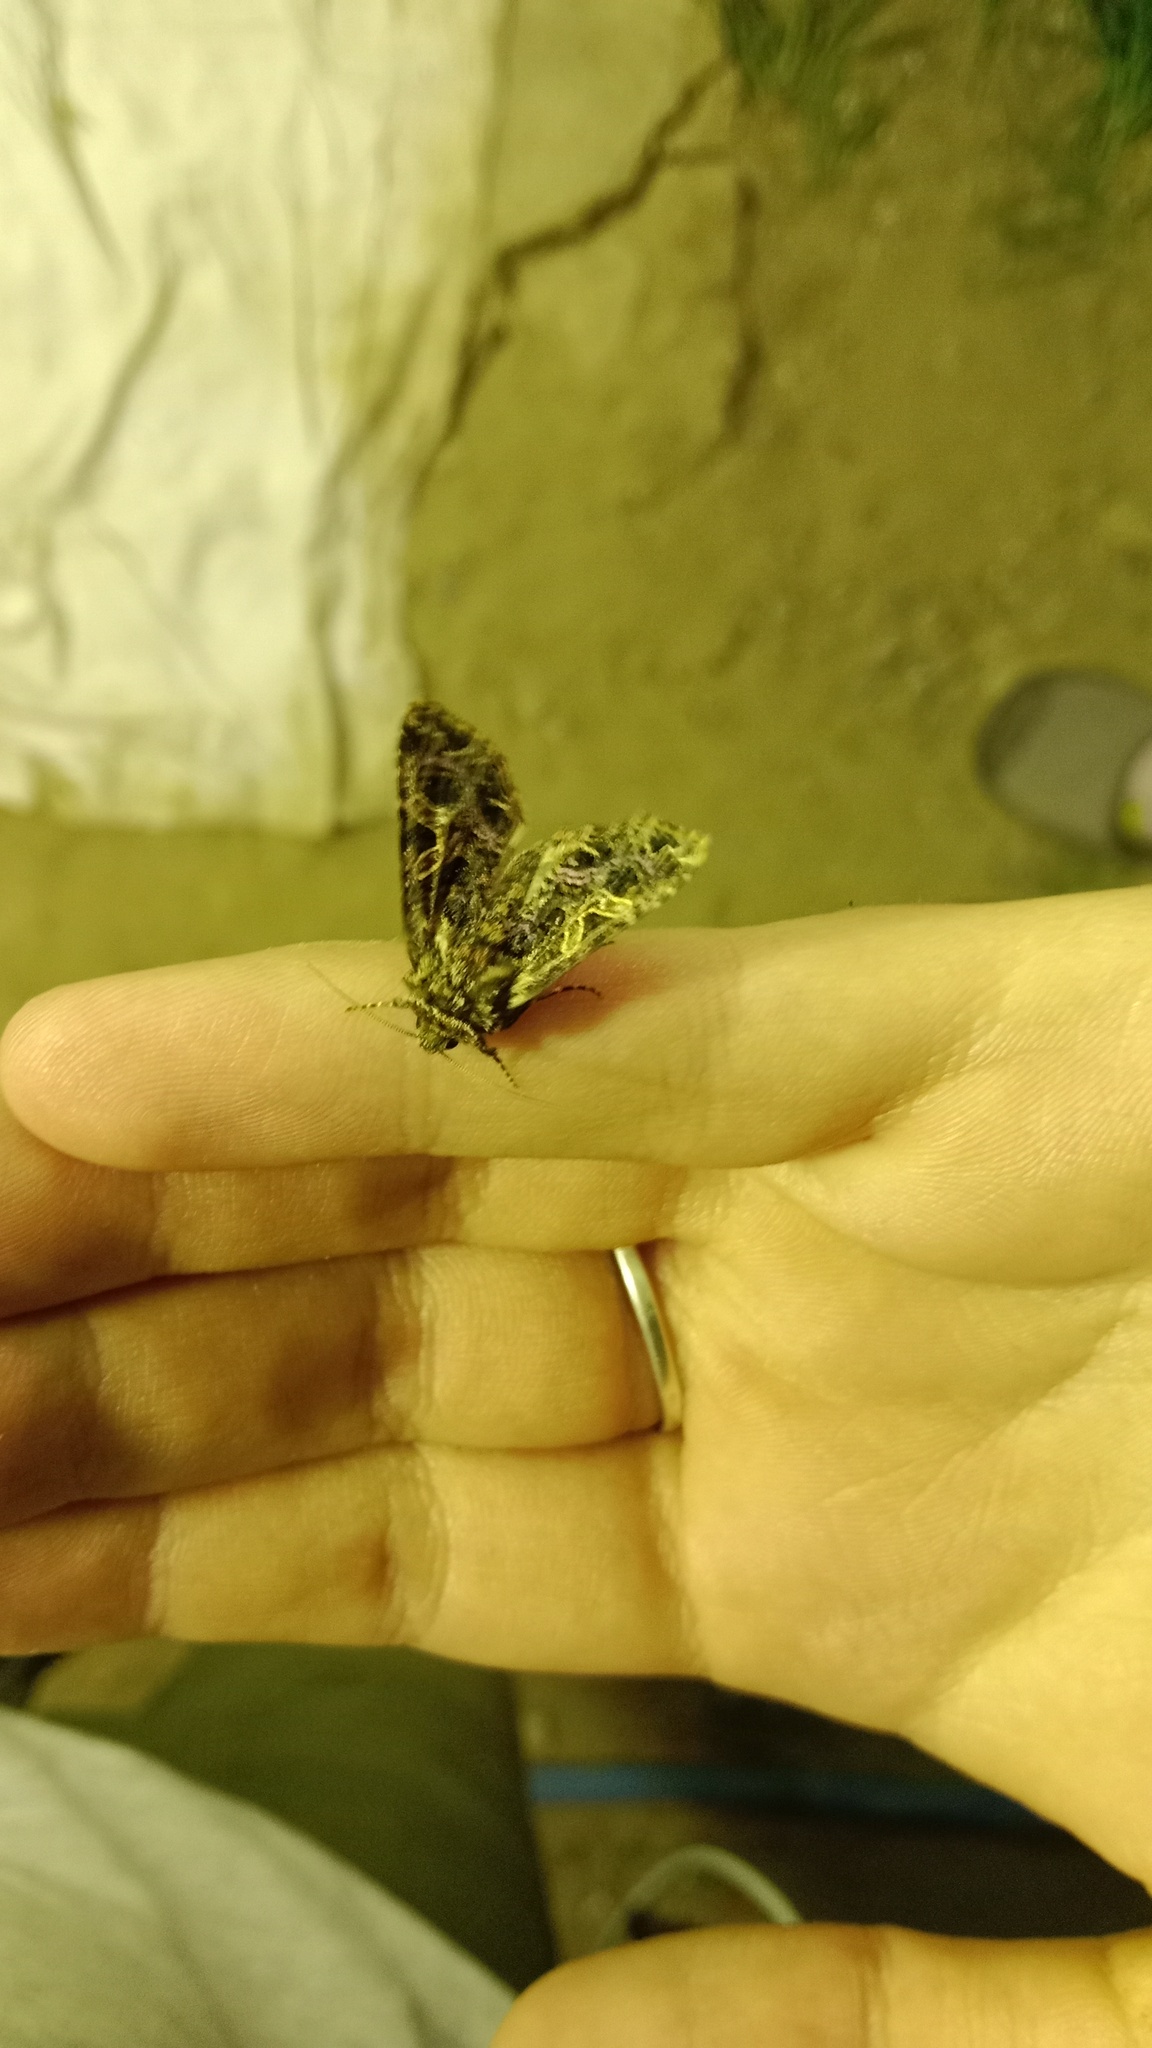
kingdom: Animalia
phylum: Arthropoda
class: Insecta
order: Lepidoptera
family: Noctuidae
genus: Sideridis
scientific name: Sideridis rivularis
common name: Campion
